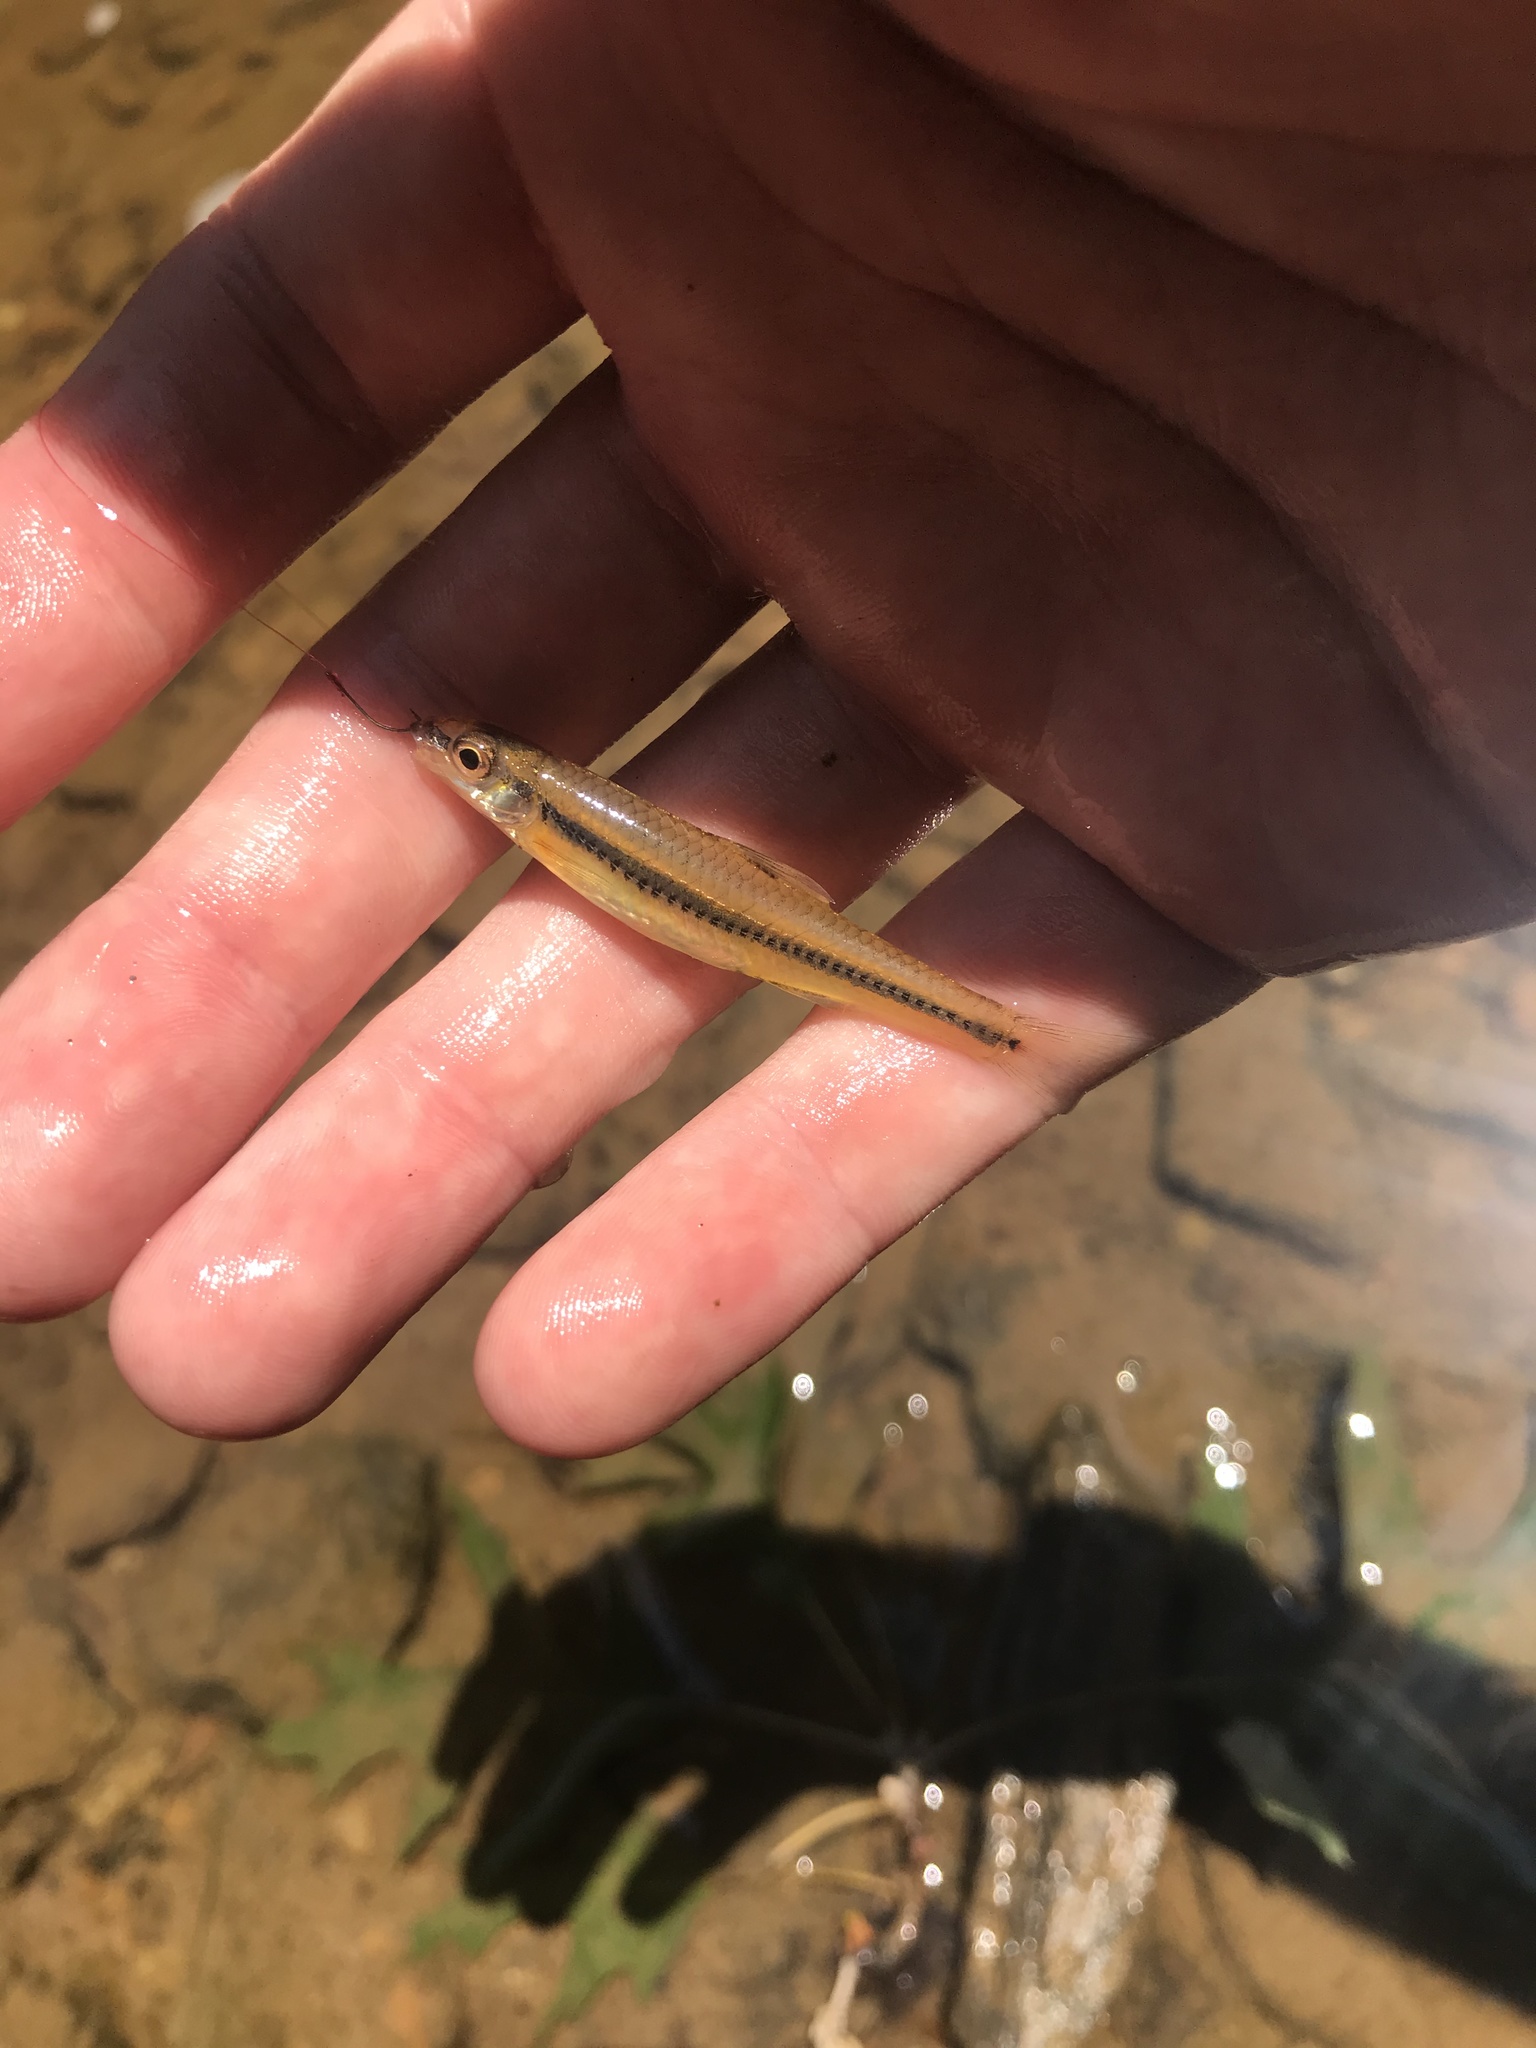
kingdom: Animalia
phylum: Chordata
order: Cypriniformes
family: Cyprinidae
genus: Notropis
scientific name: Notropis
